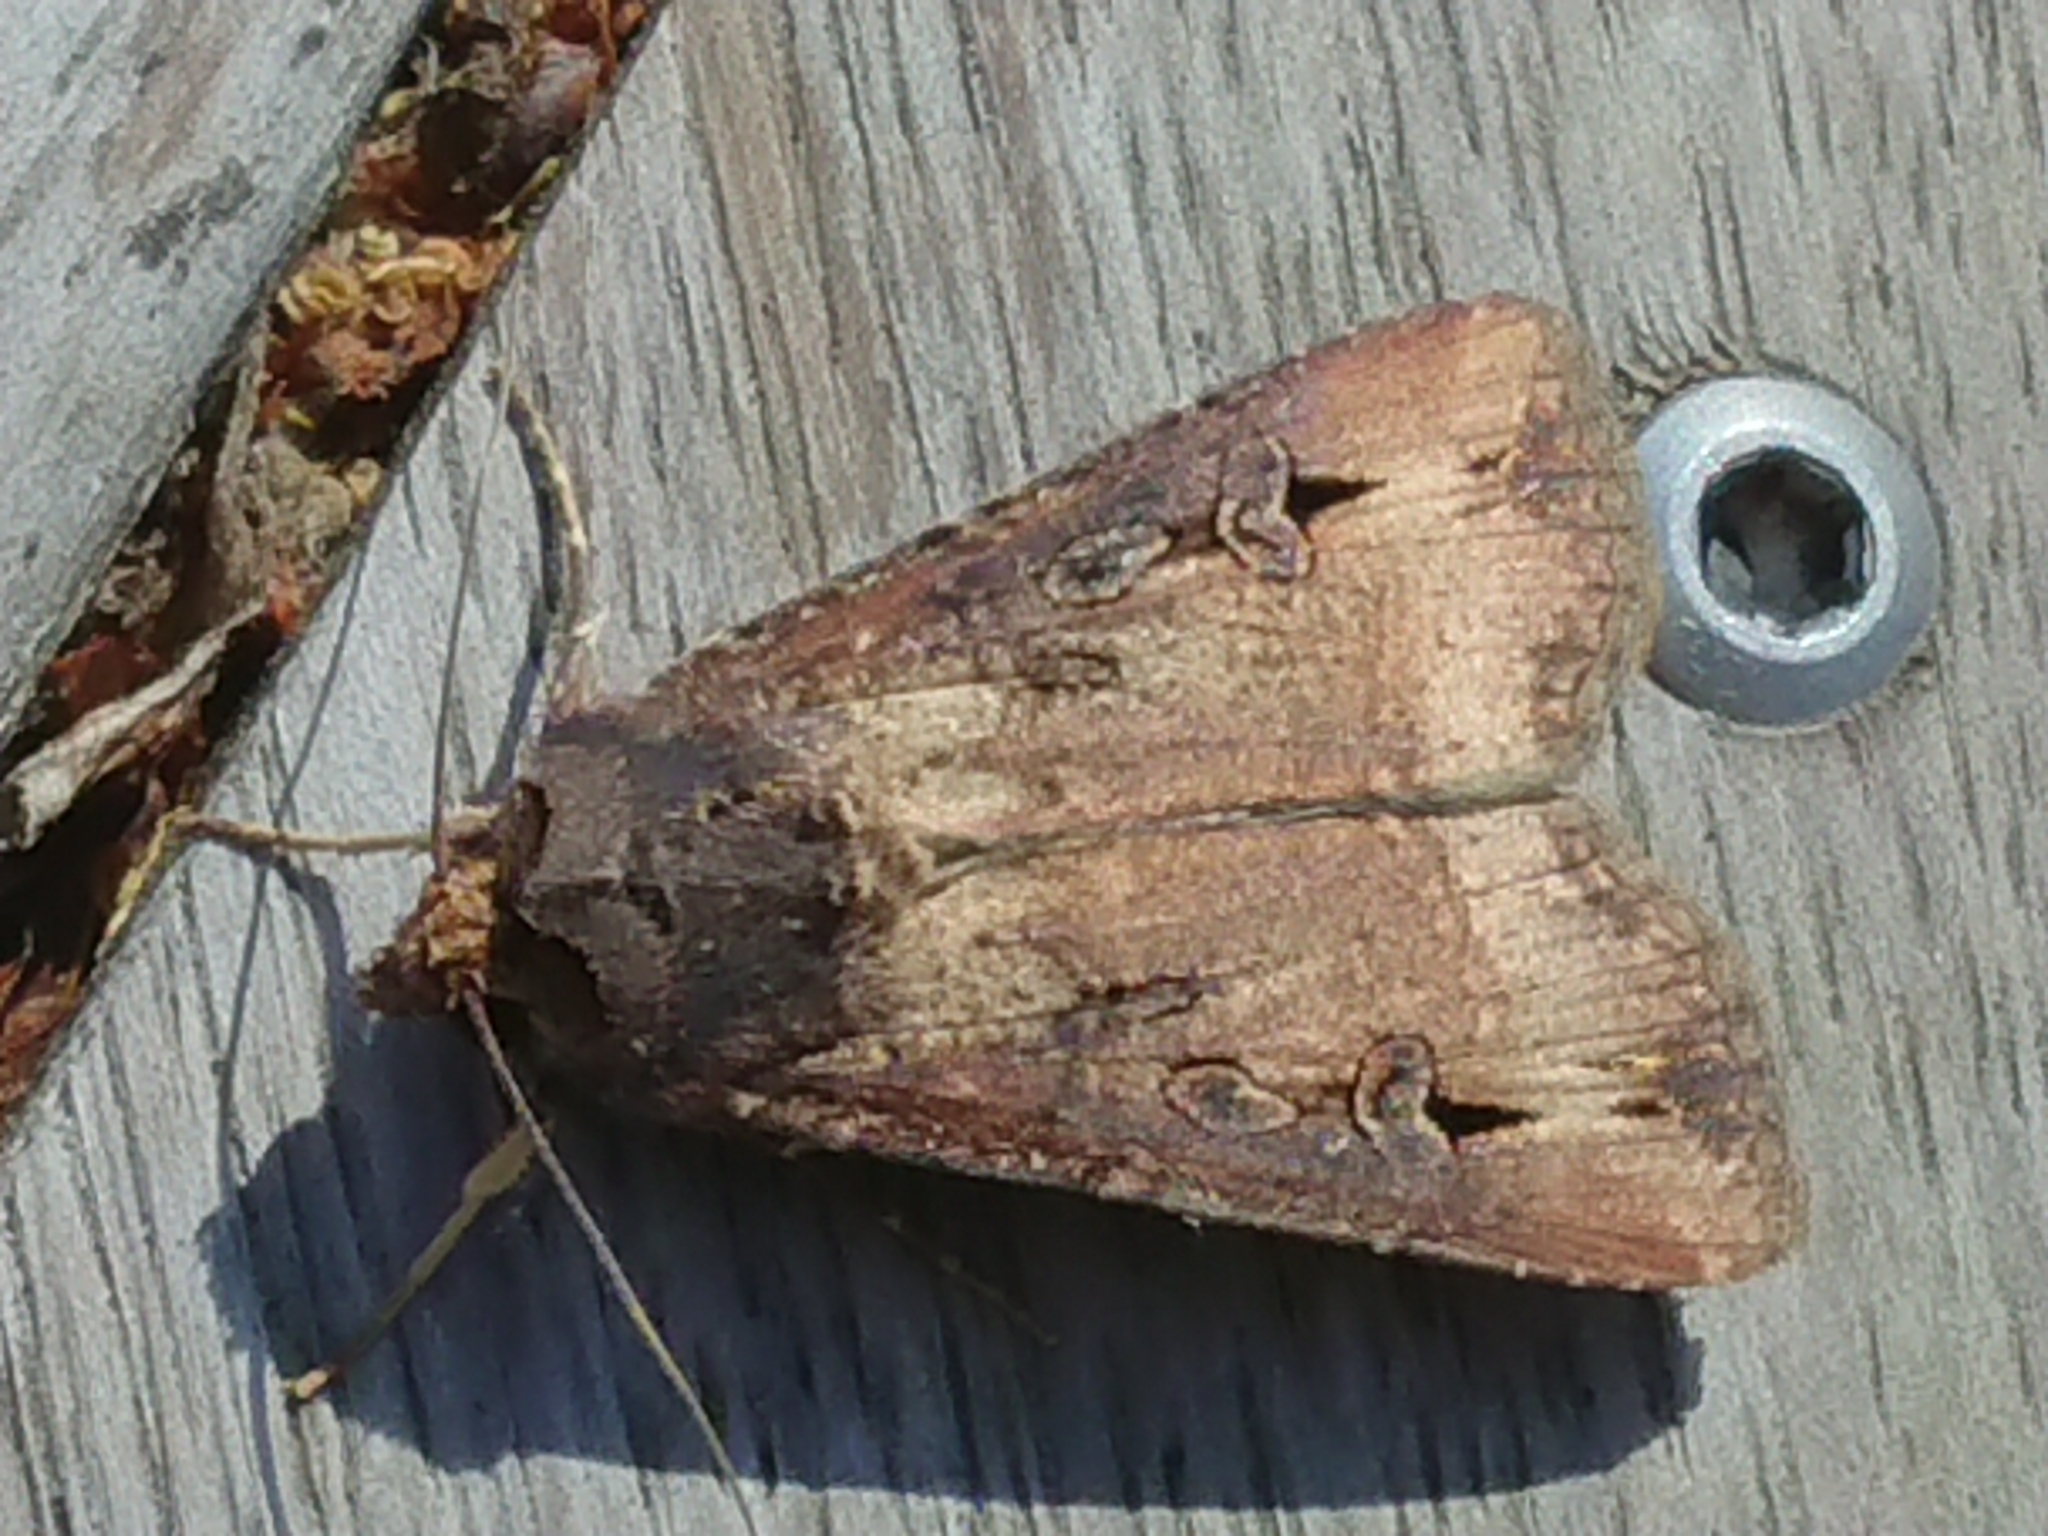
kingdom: Animalia
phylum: Arthropoda
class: Insecta
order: Lepidoptera
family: Noctuidae
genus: Agrotis
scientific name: Agrotis ipsilon
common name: Dark sword-grass
